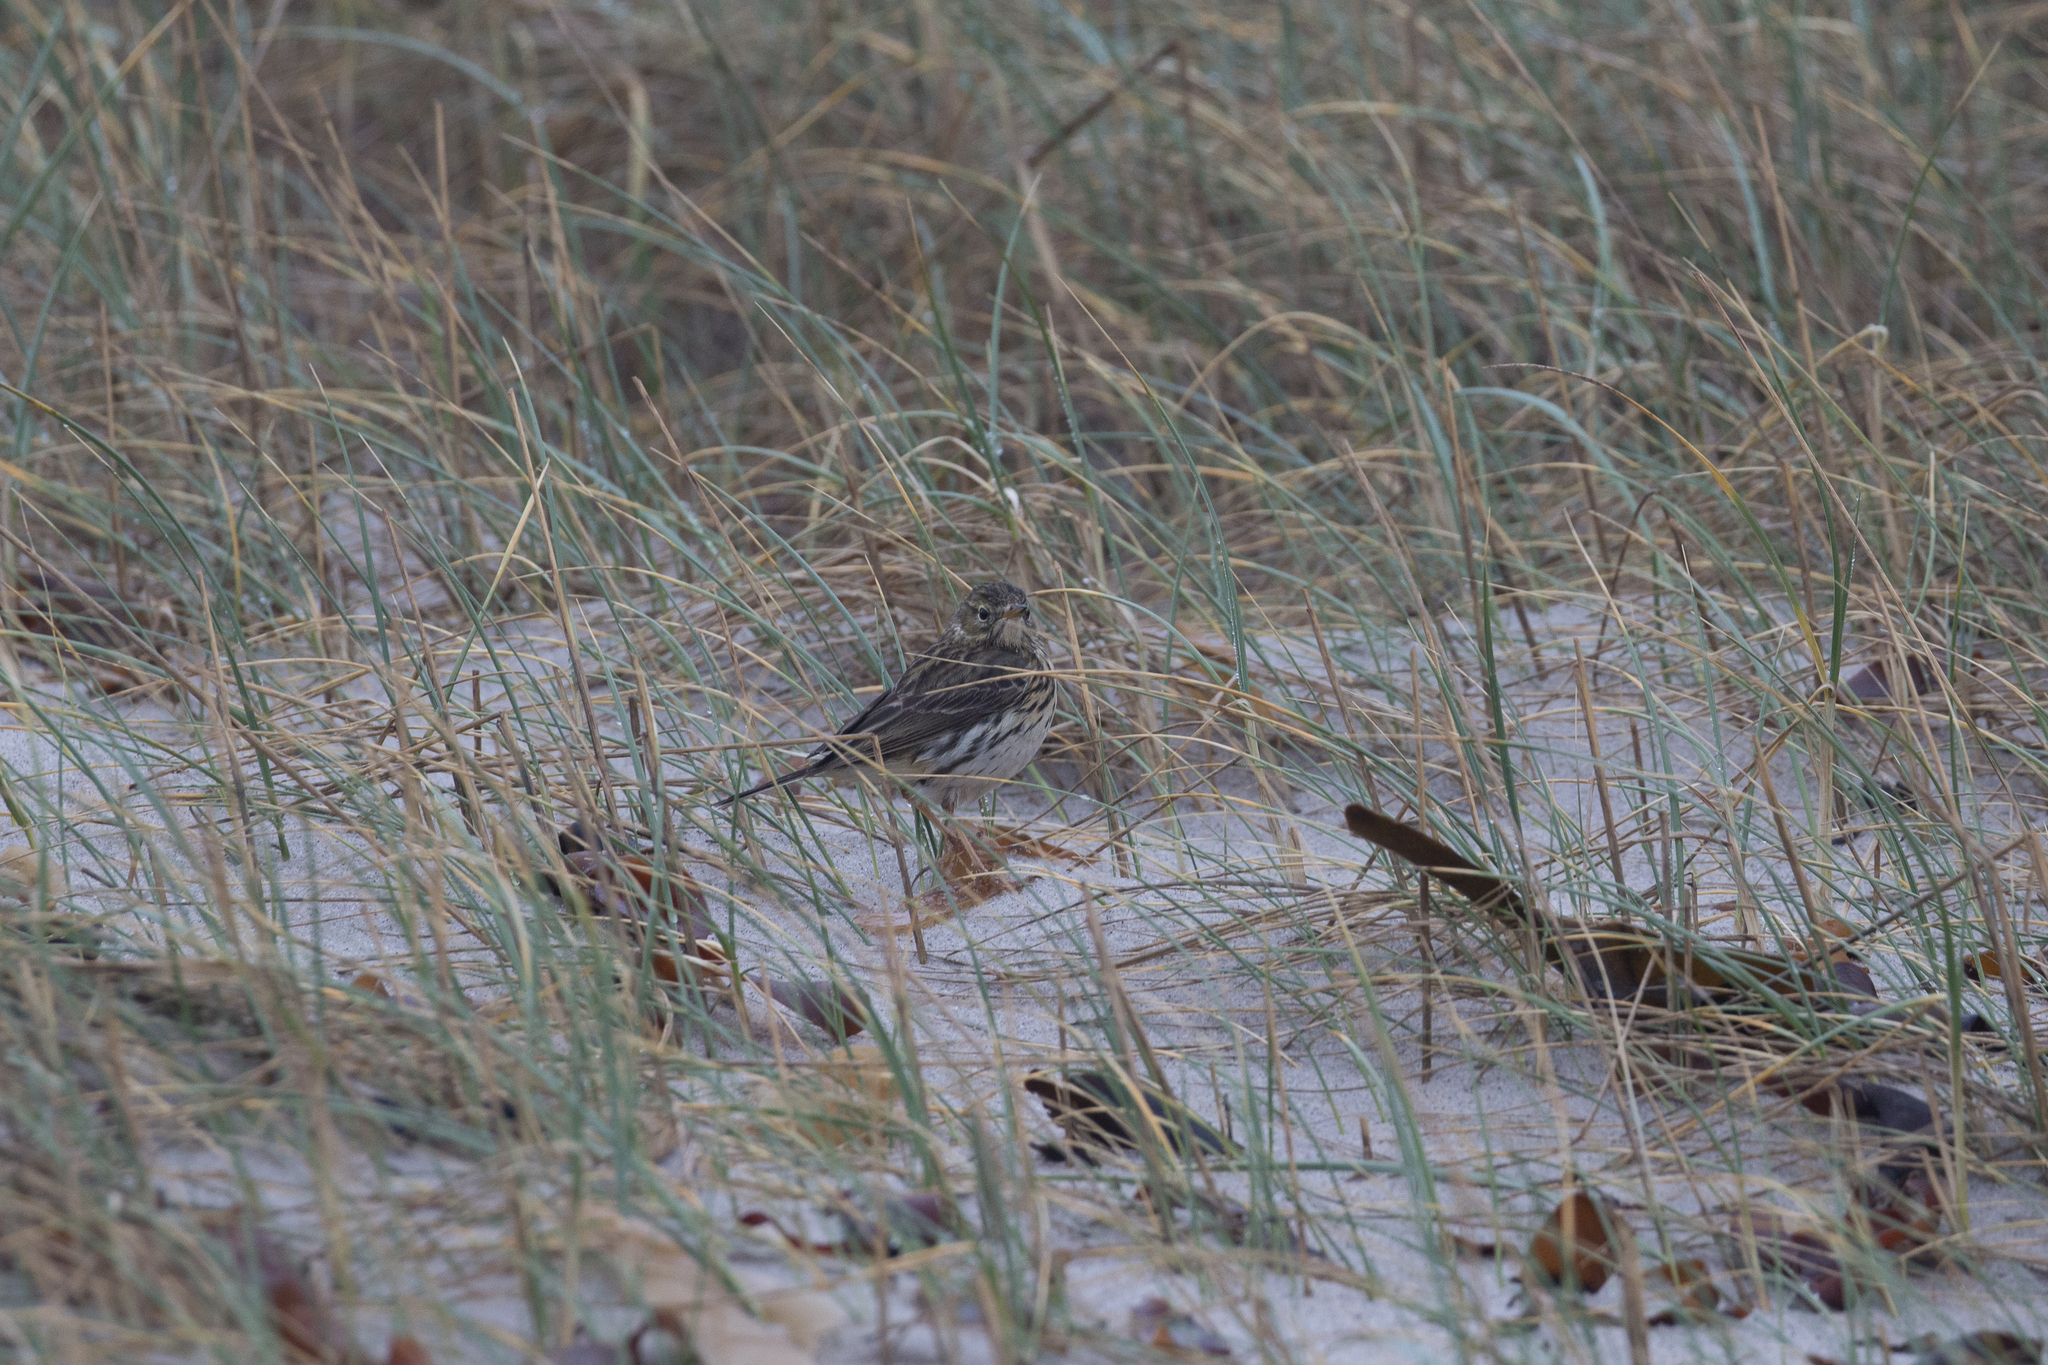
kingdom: Animalia
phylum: Chordata
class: Aves
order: Passeriformes
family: Motacillidae
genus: Anthus
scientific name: Anthus pratensis
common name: Meadow pipit
